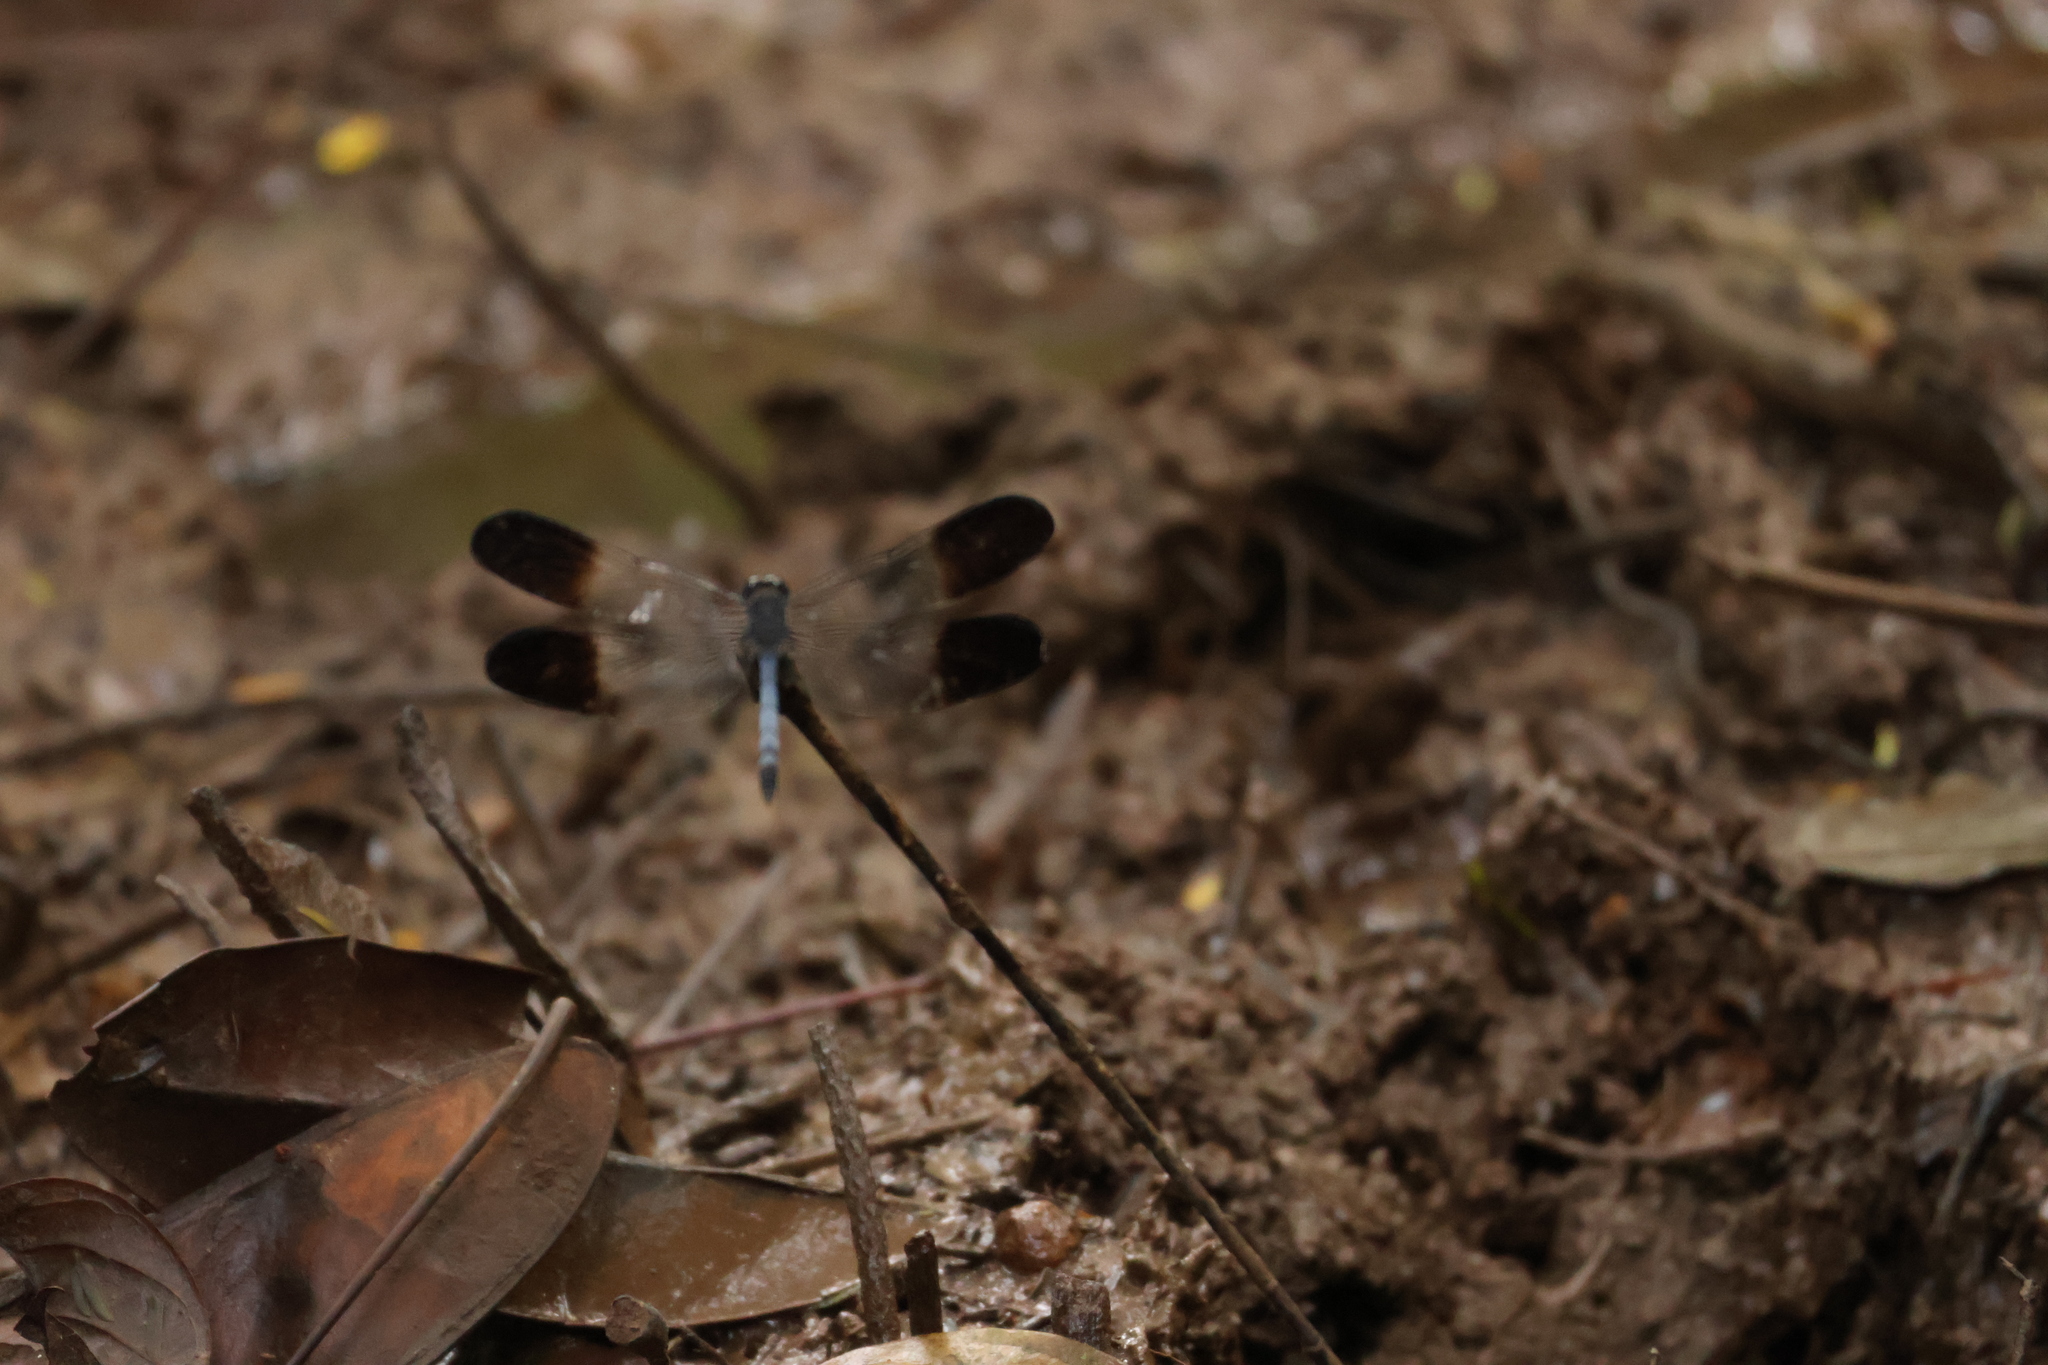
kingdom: Animalia
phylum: Arthropoda
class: Insecta
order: Odonata
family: Libellulidae
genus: Uracis
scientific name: Uracis fastigiata
